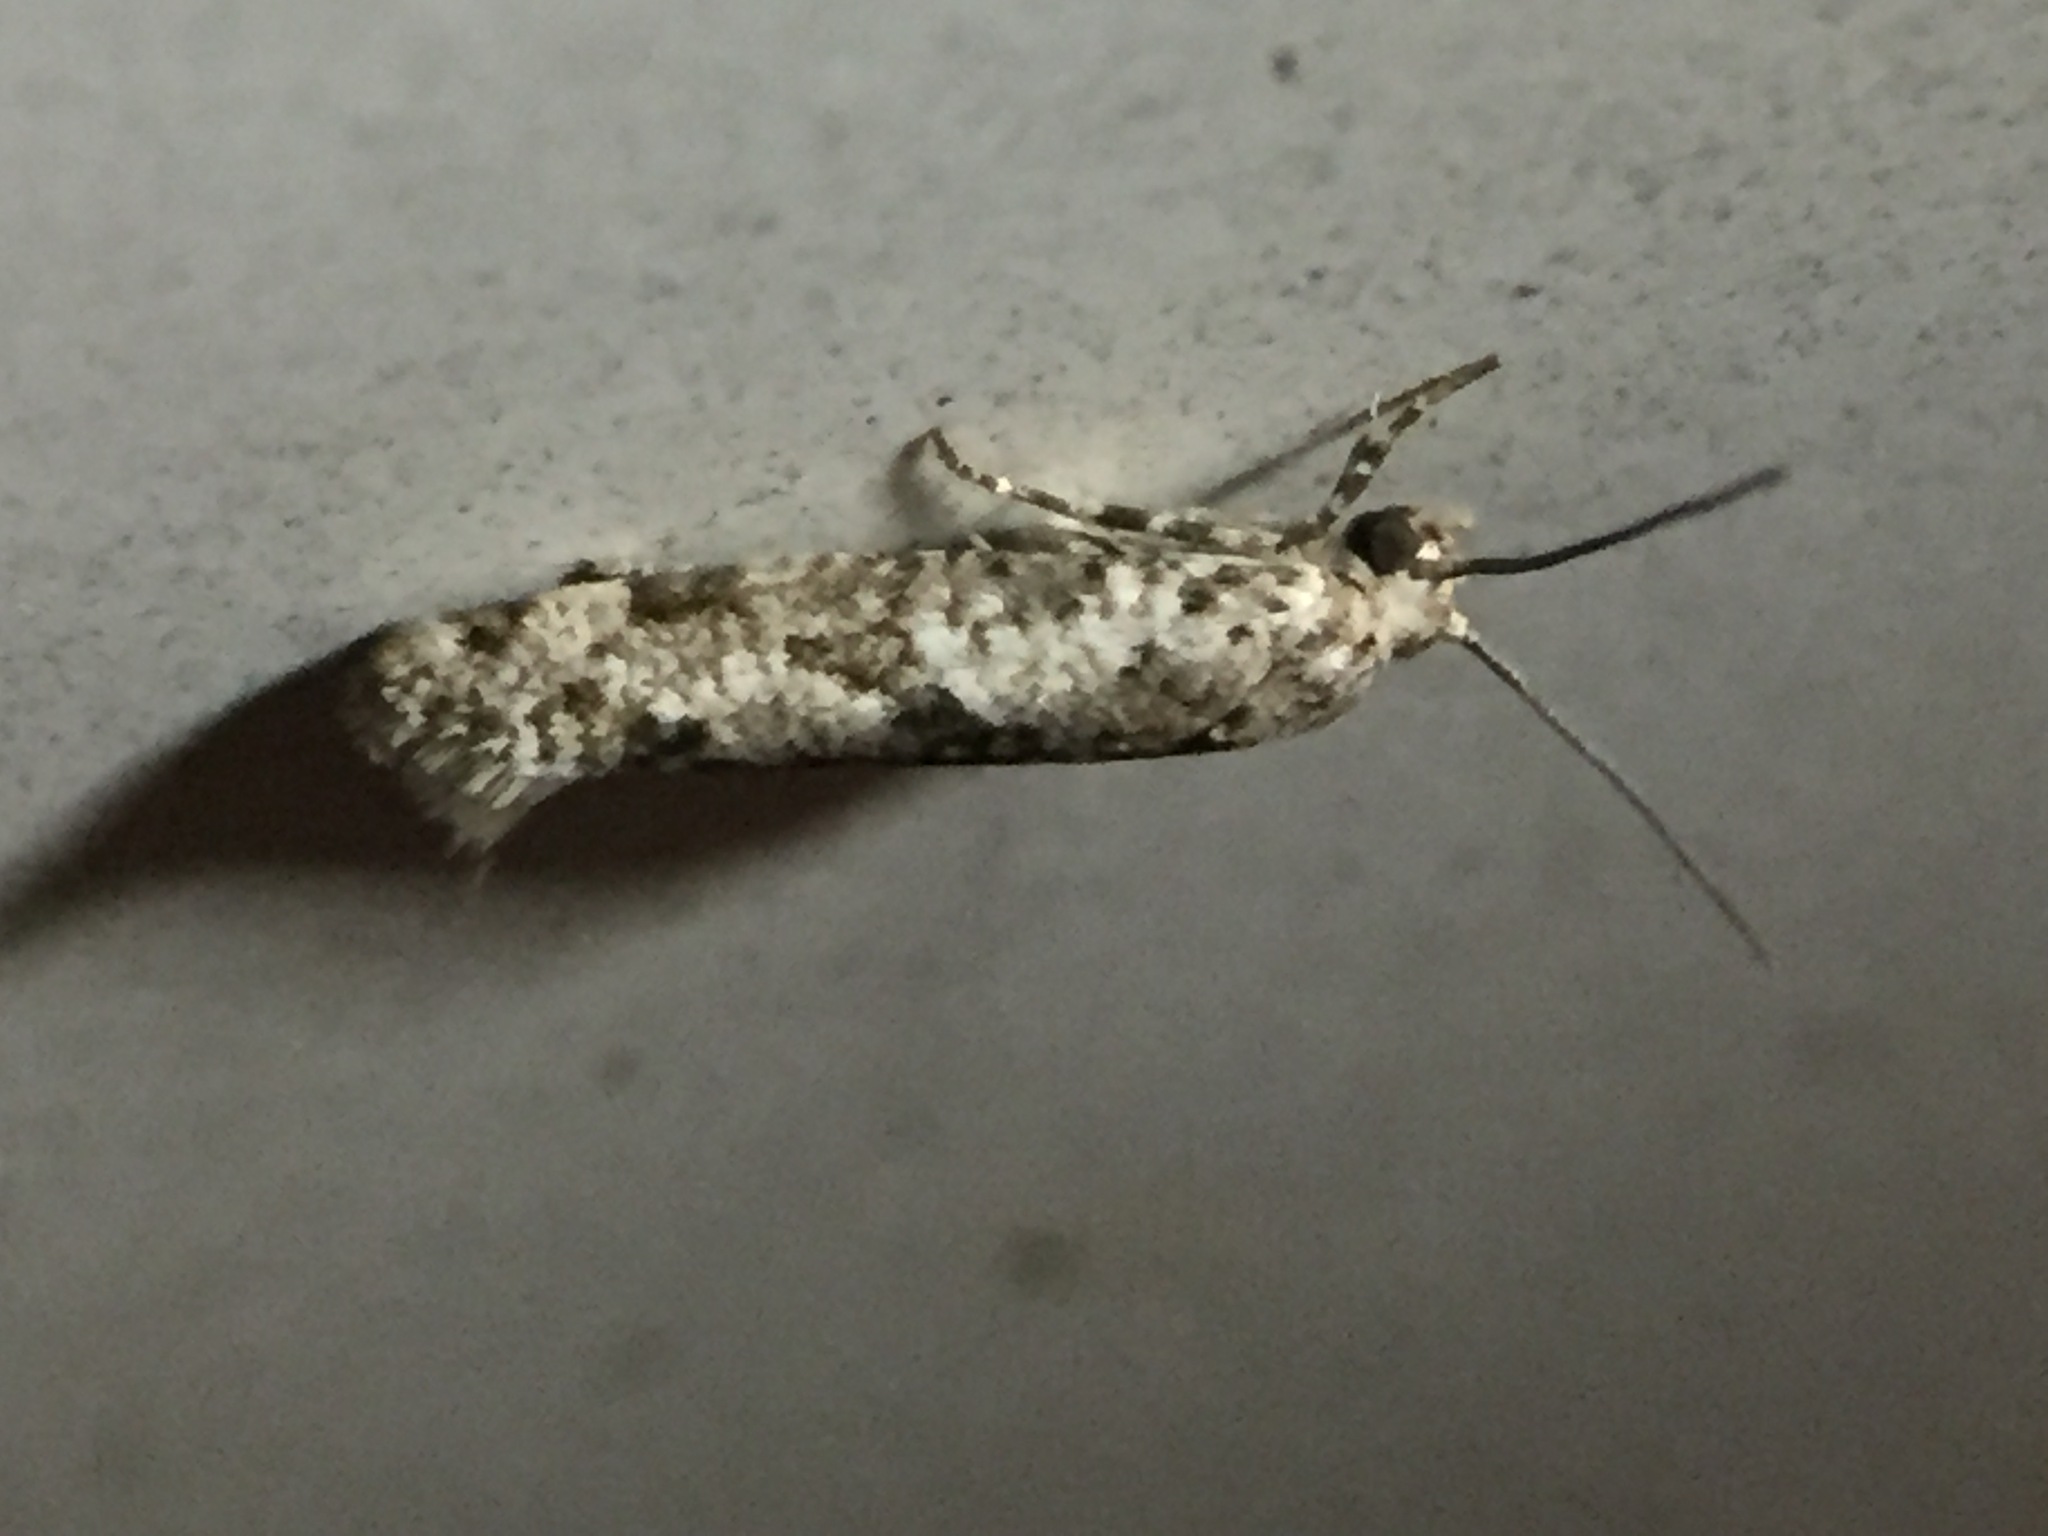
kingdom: Animalia
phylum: Arthropoda
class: Insecta
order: Lepidoptera
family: Praydidae
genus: Prays
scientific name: Prays nephelomima
